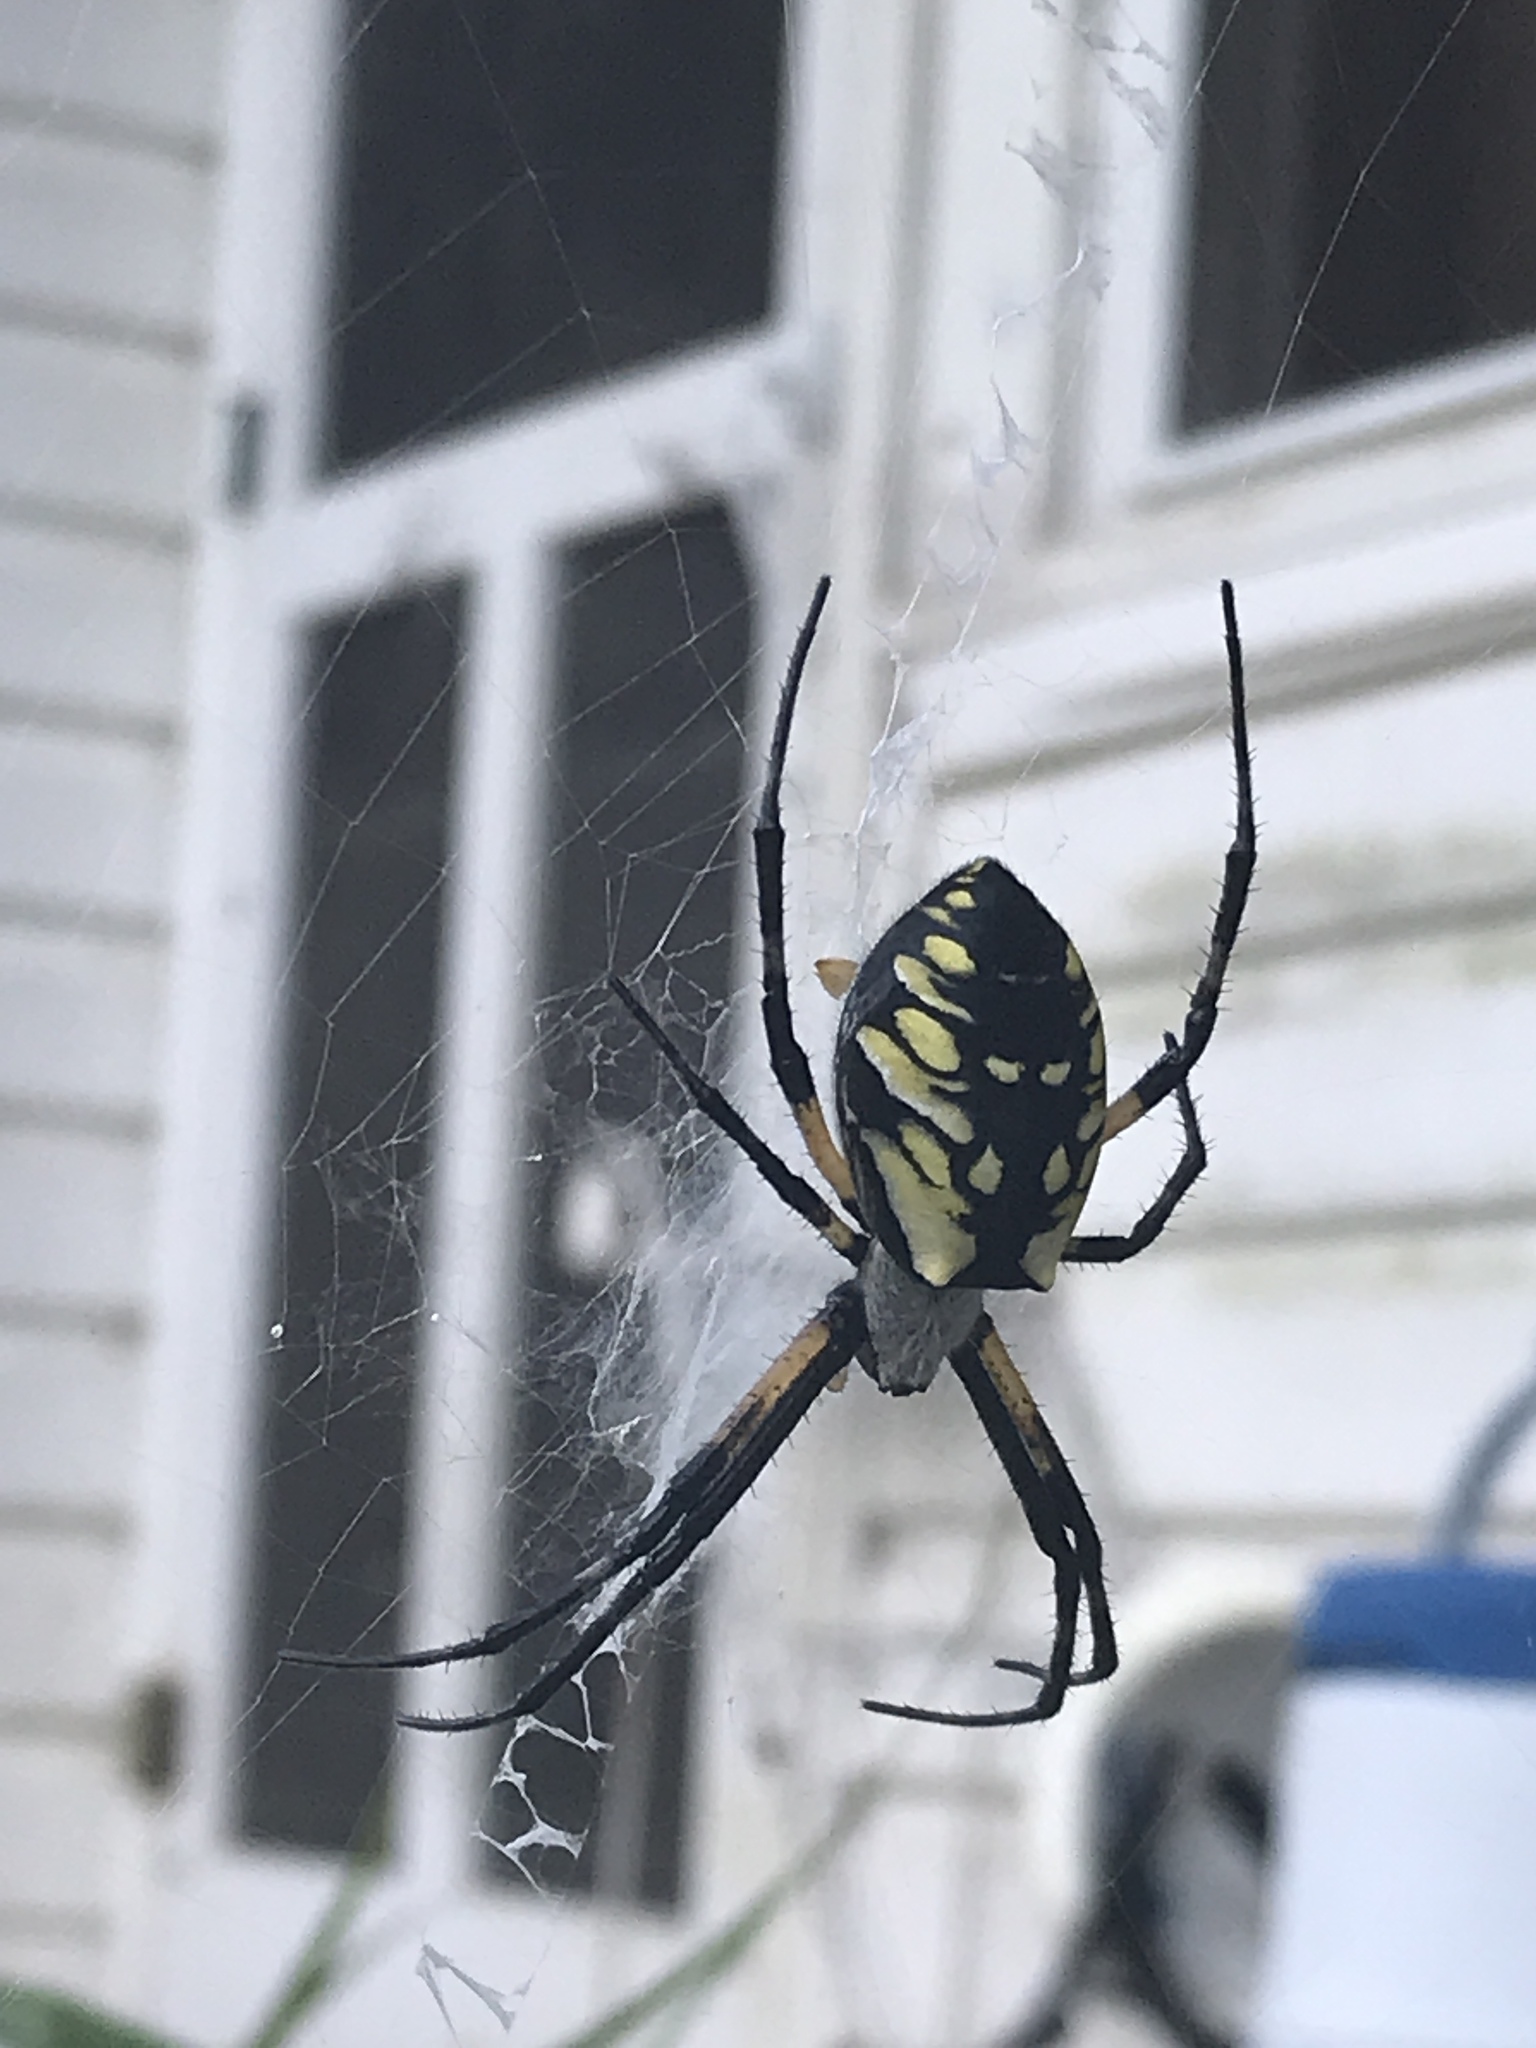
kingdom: Animalia
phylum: Arthropoda
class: Arachnida
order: Araneae
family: Araneidae
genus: Argiope
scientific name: Argiope aurantia
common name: Orb weavers
